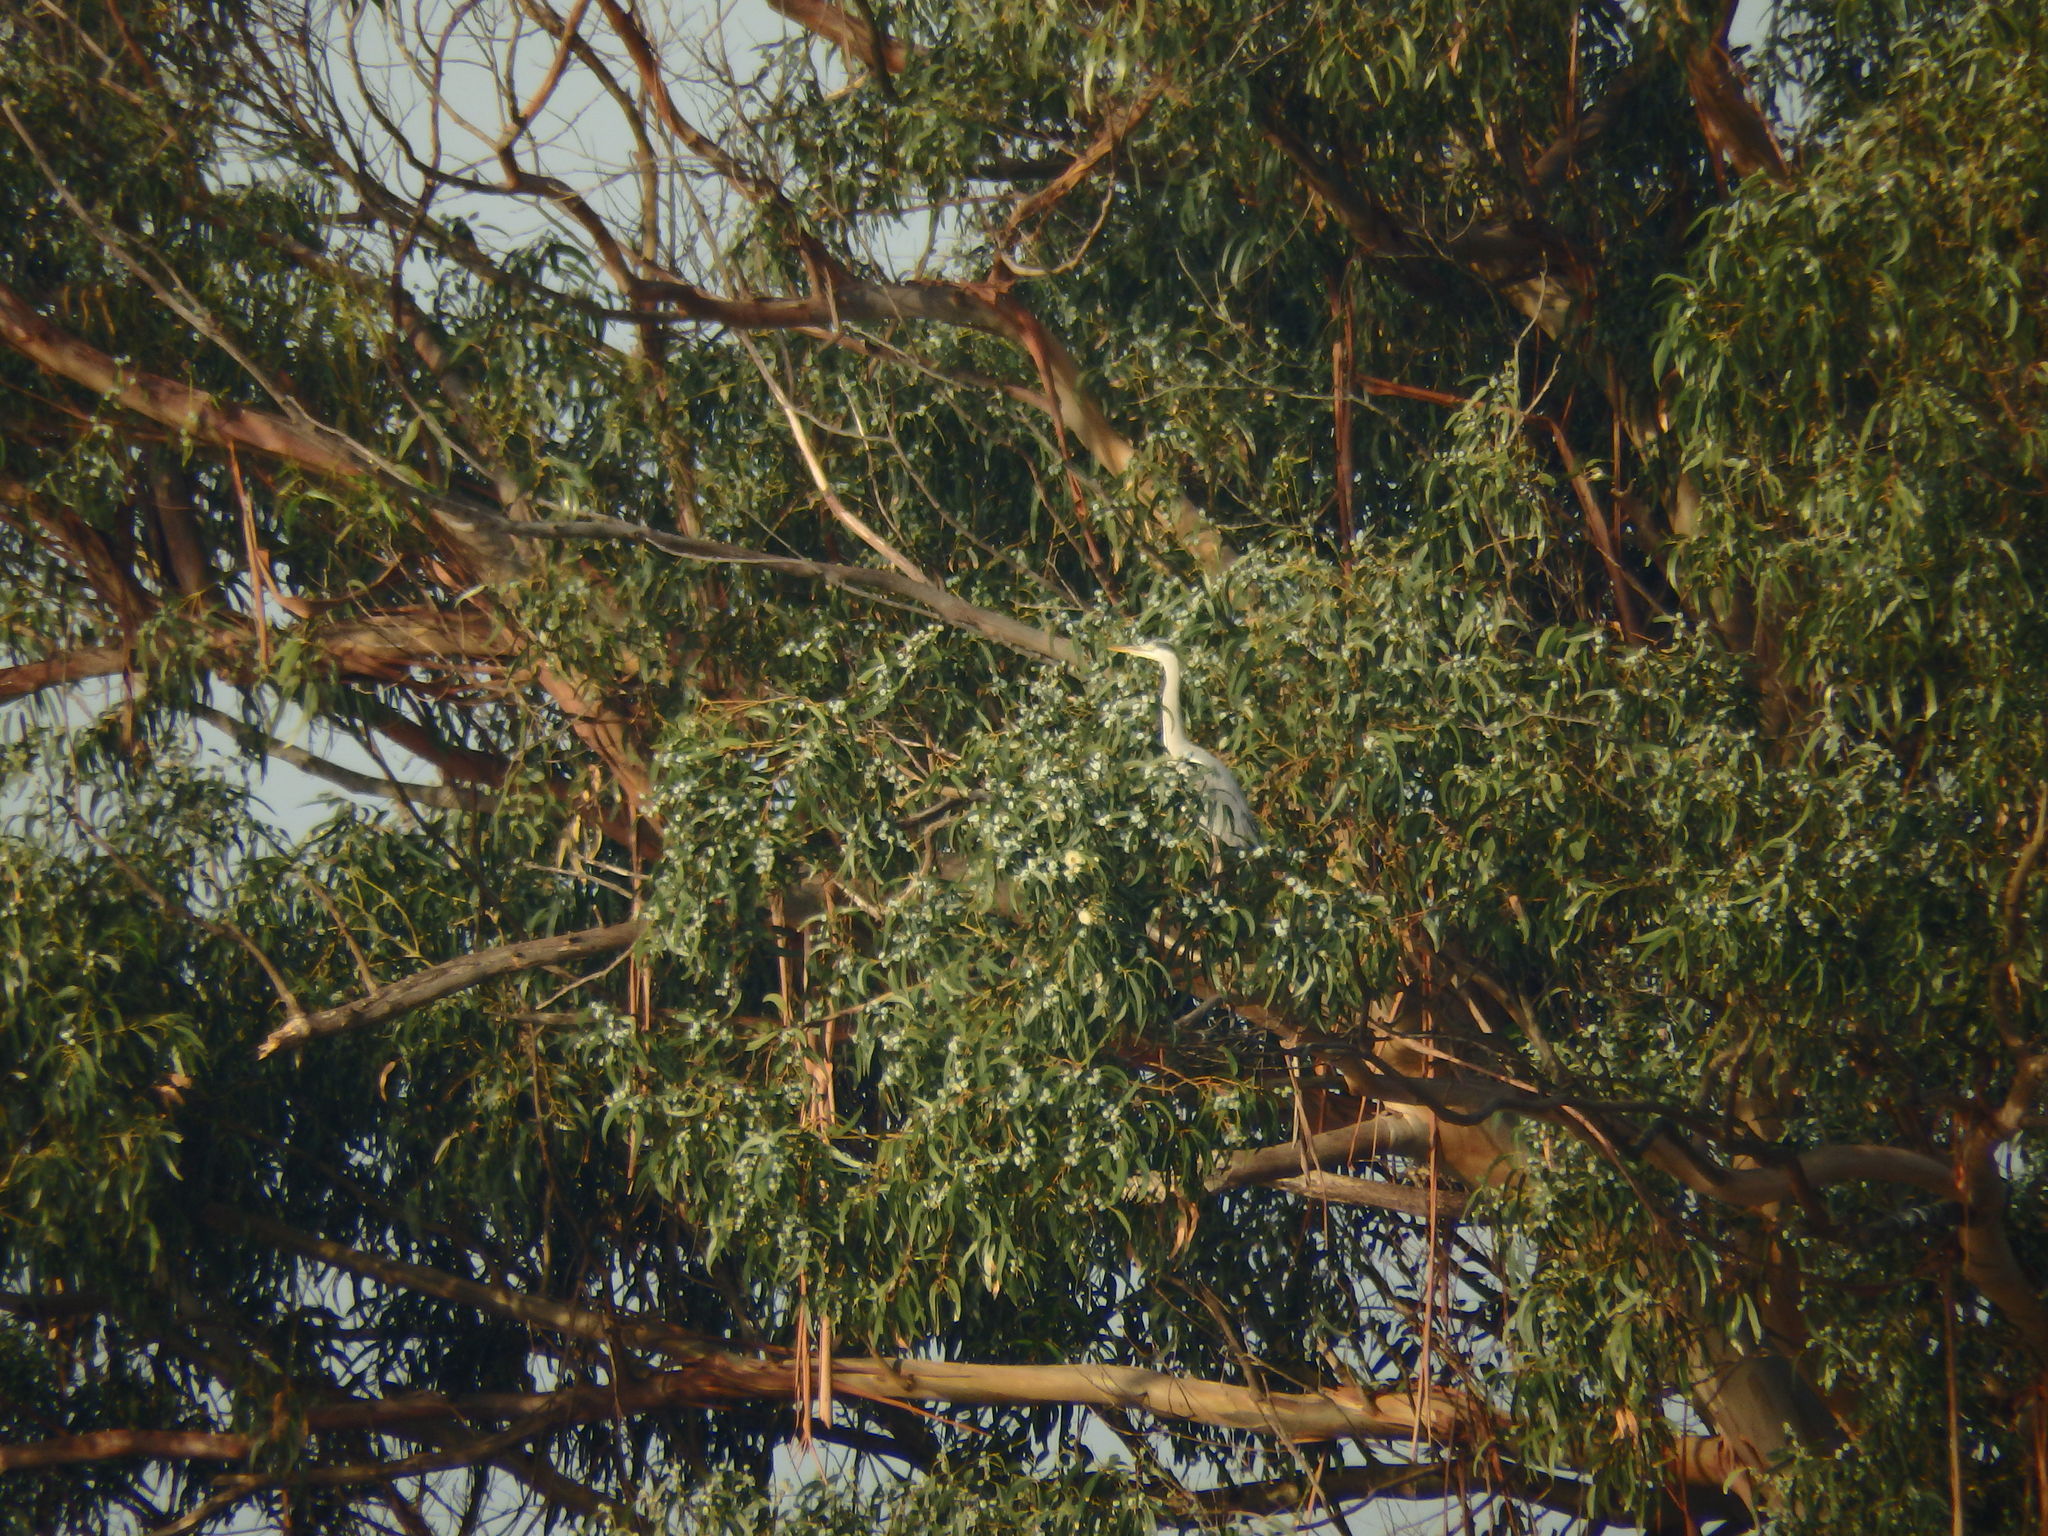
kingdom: Animalia
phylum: Chordata
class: Aves
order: Pelecaniformes
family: Ardeidae
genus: Ardea
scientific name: Ardea cinerea
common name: Grey heron
